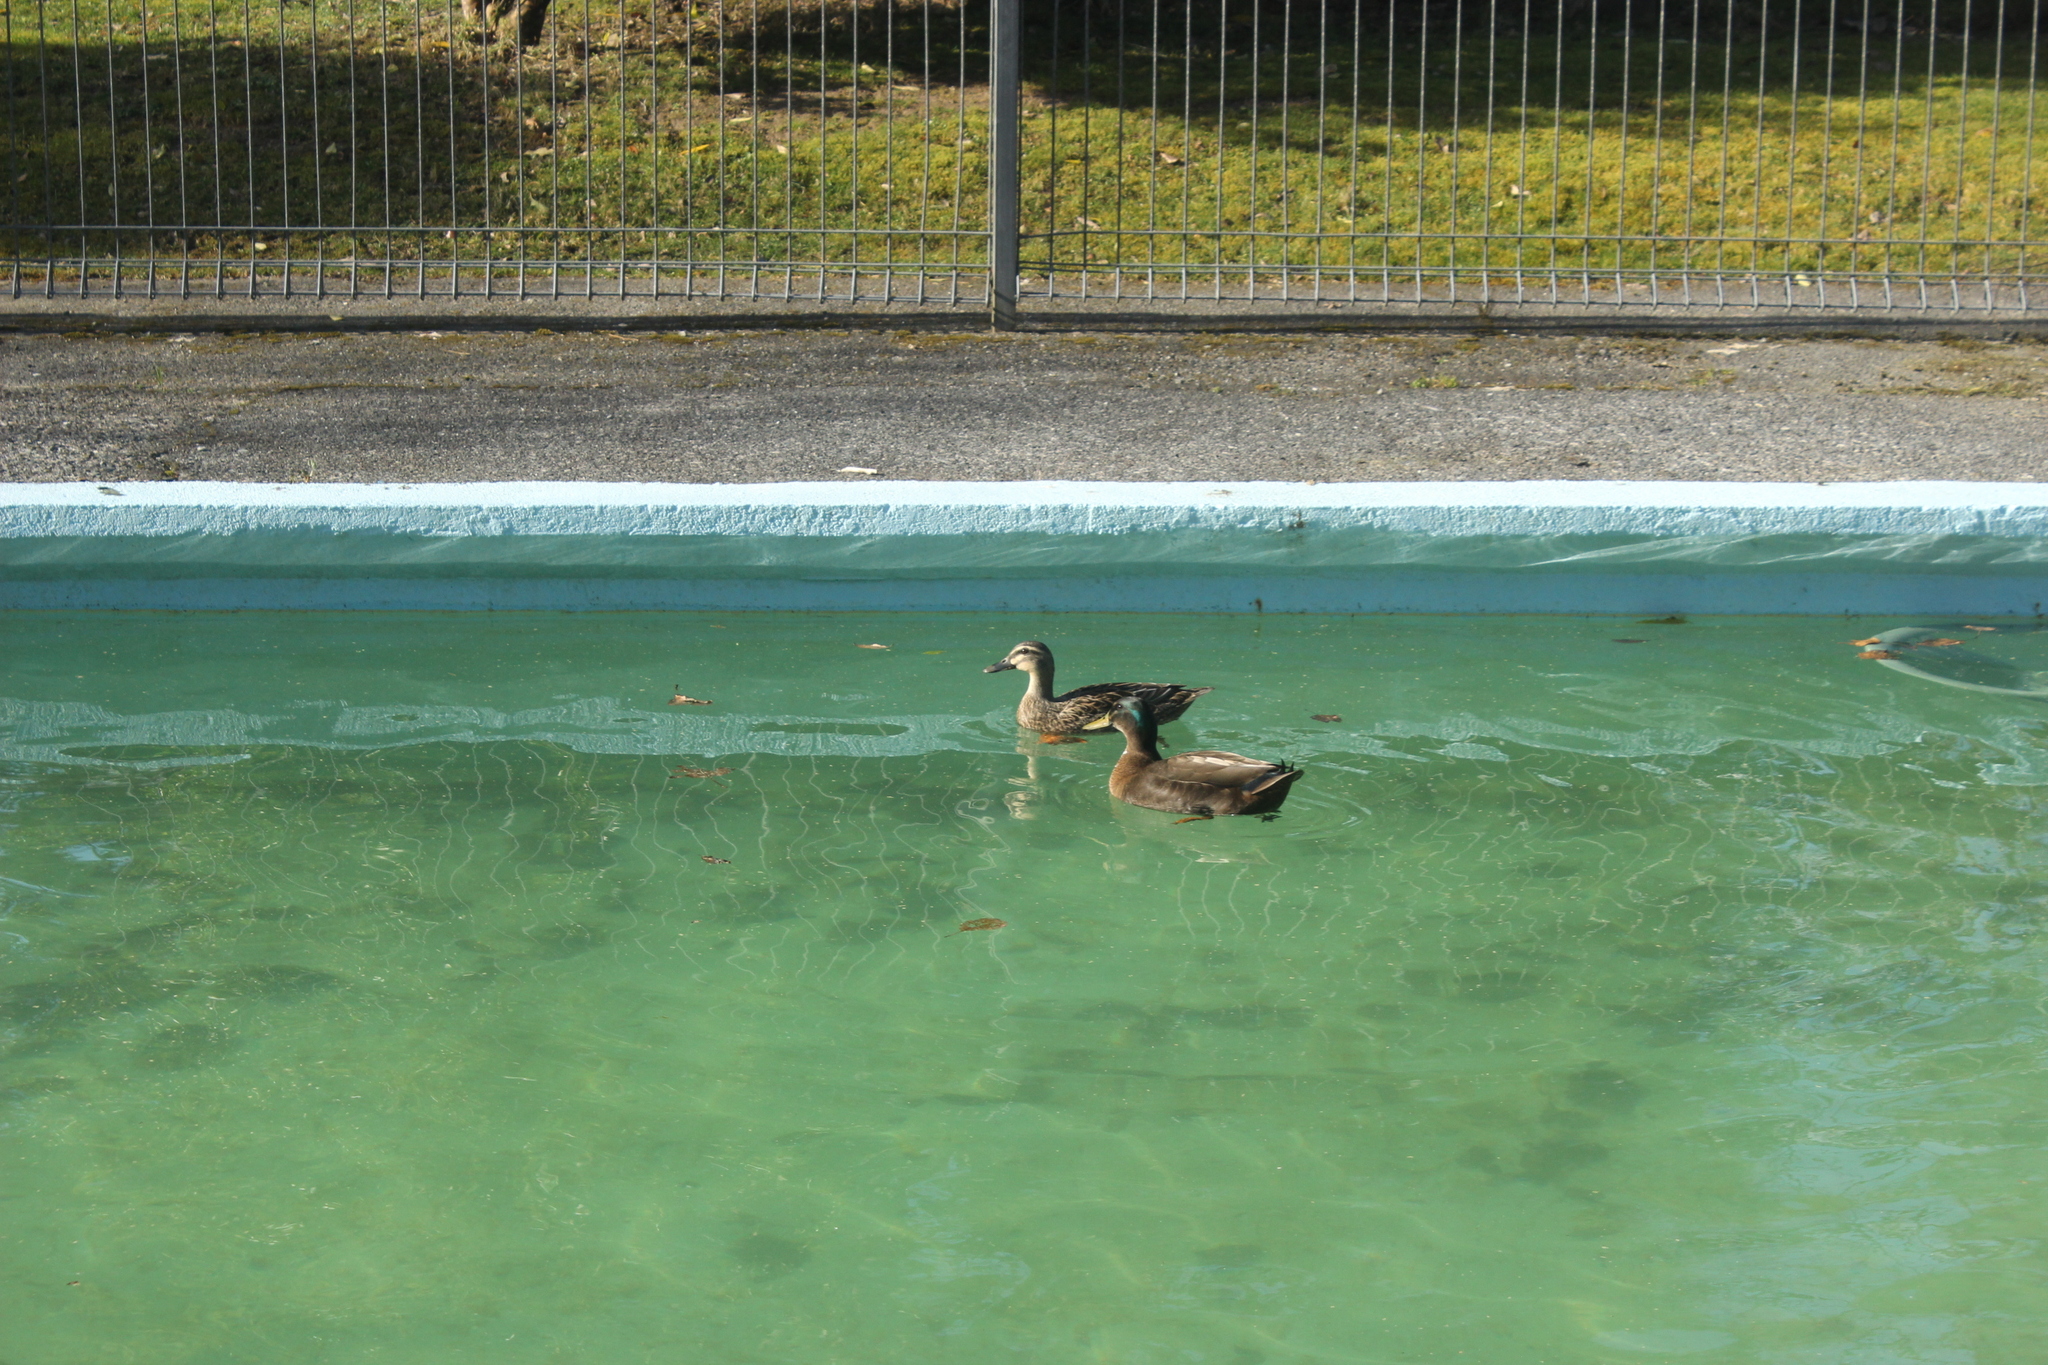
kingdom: Animalia
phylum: Chordata
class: Aves
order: Anseriformes
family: Anatidae
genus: Anas
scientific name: Anas platyrhynchos
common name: Mallard
